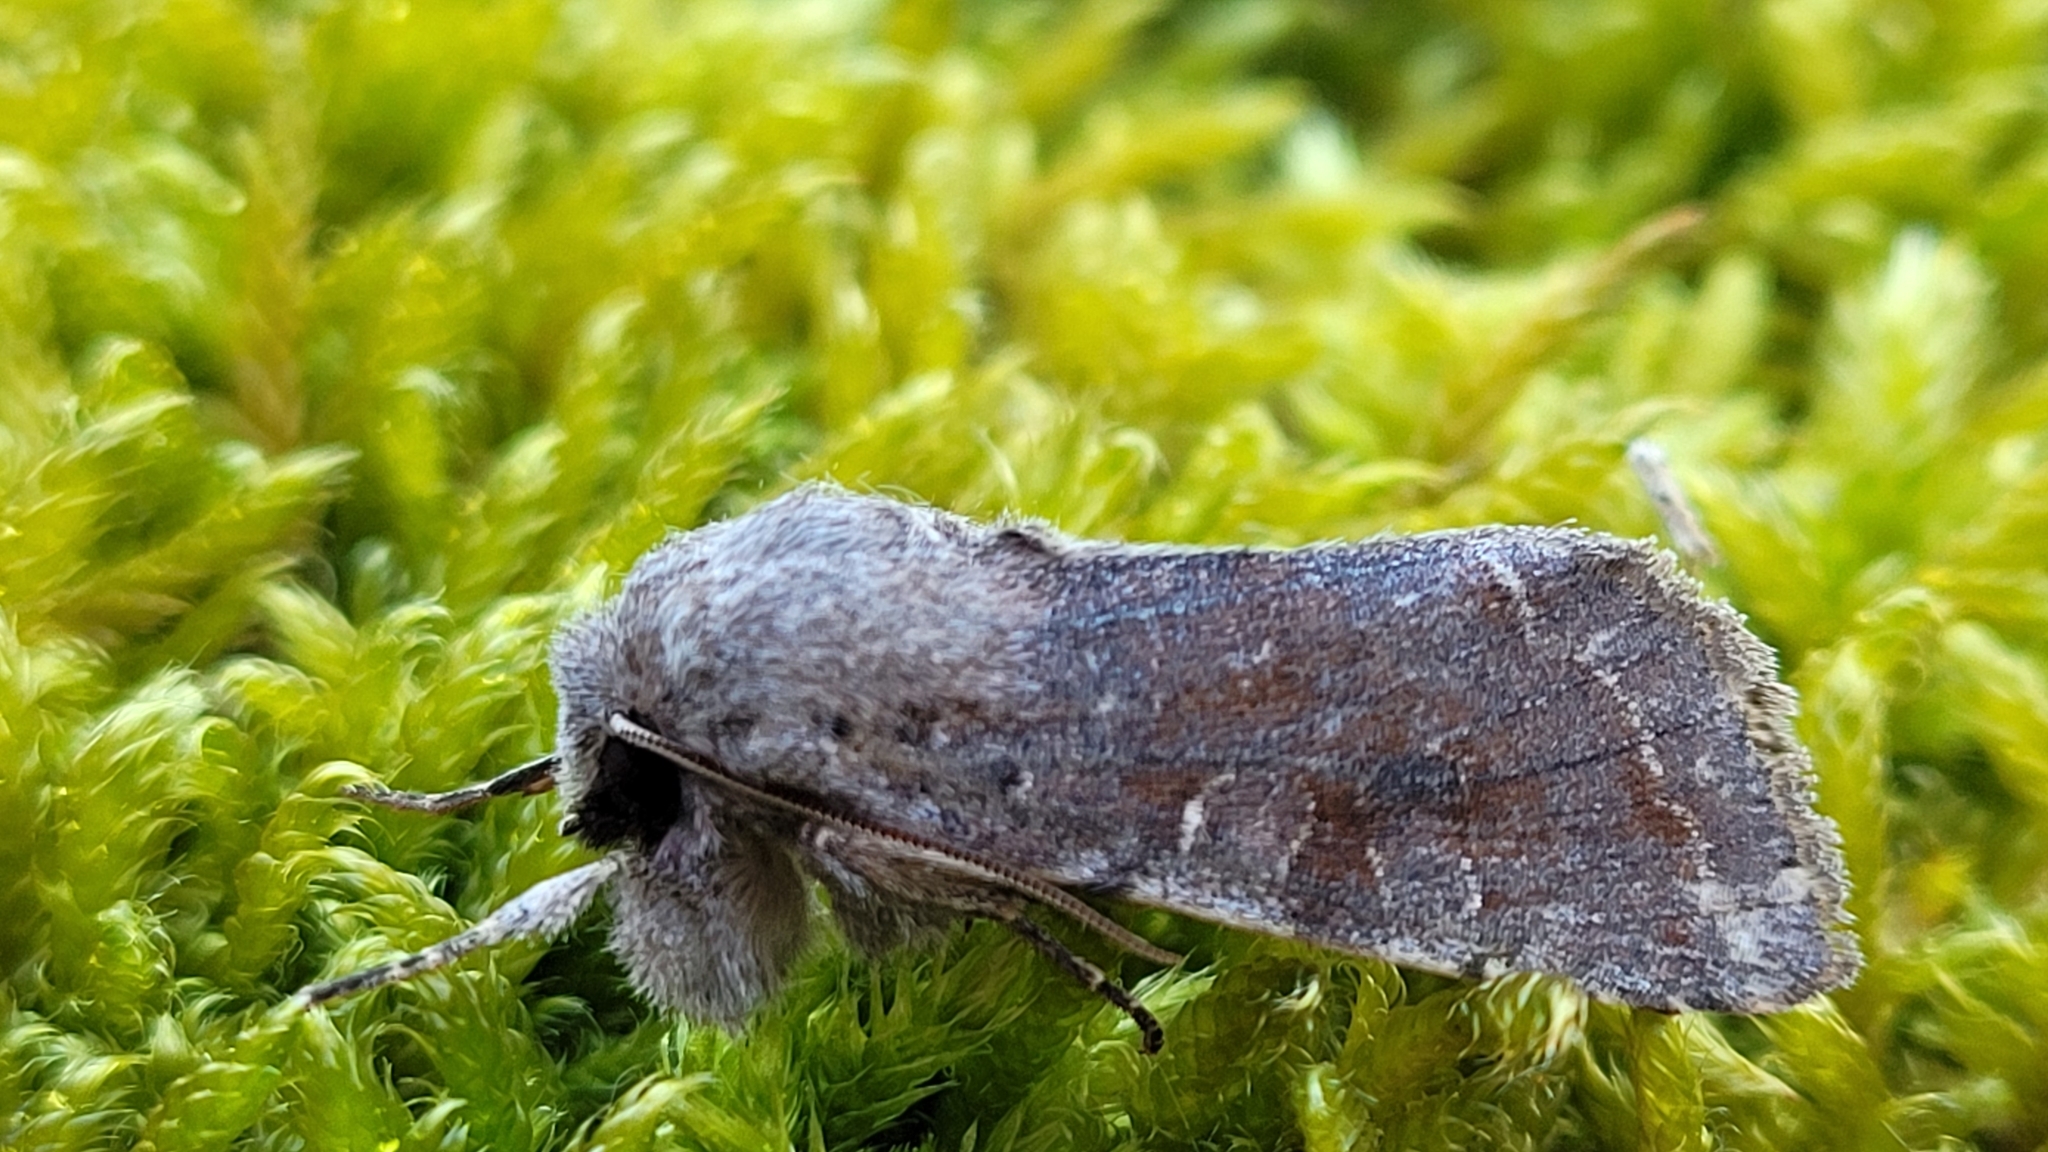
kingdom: Animalia
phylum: Arthropoda
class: Insecta
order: Lepidoptera
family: Noctuidae
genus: Orthosia
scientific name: Orthosia incerta
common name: Clouded drab
